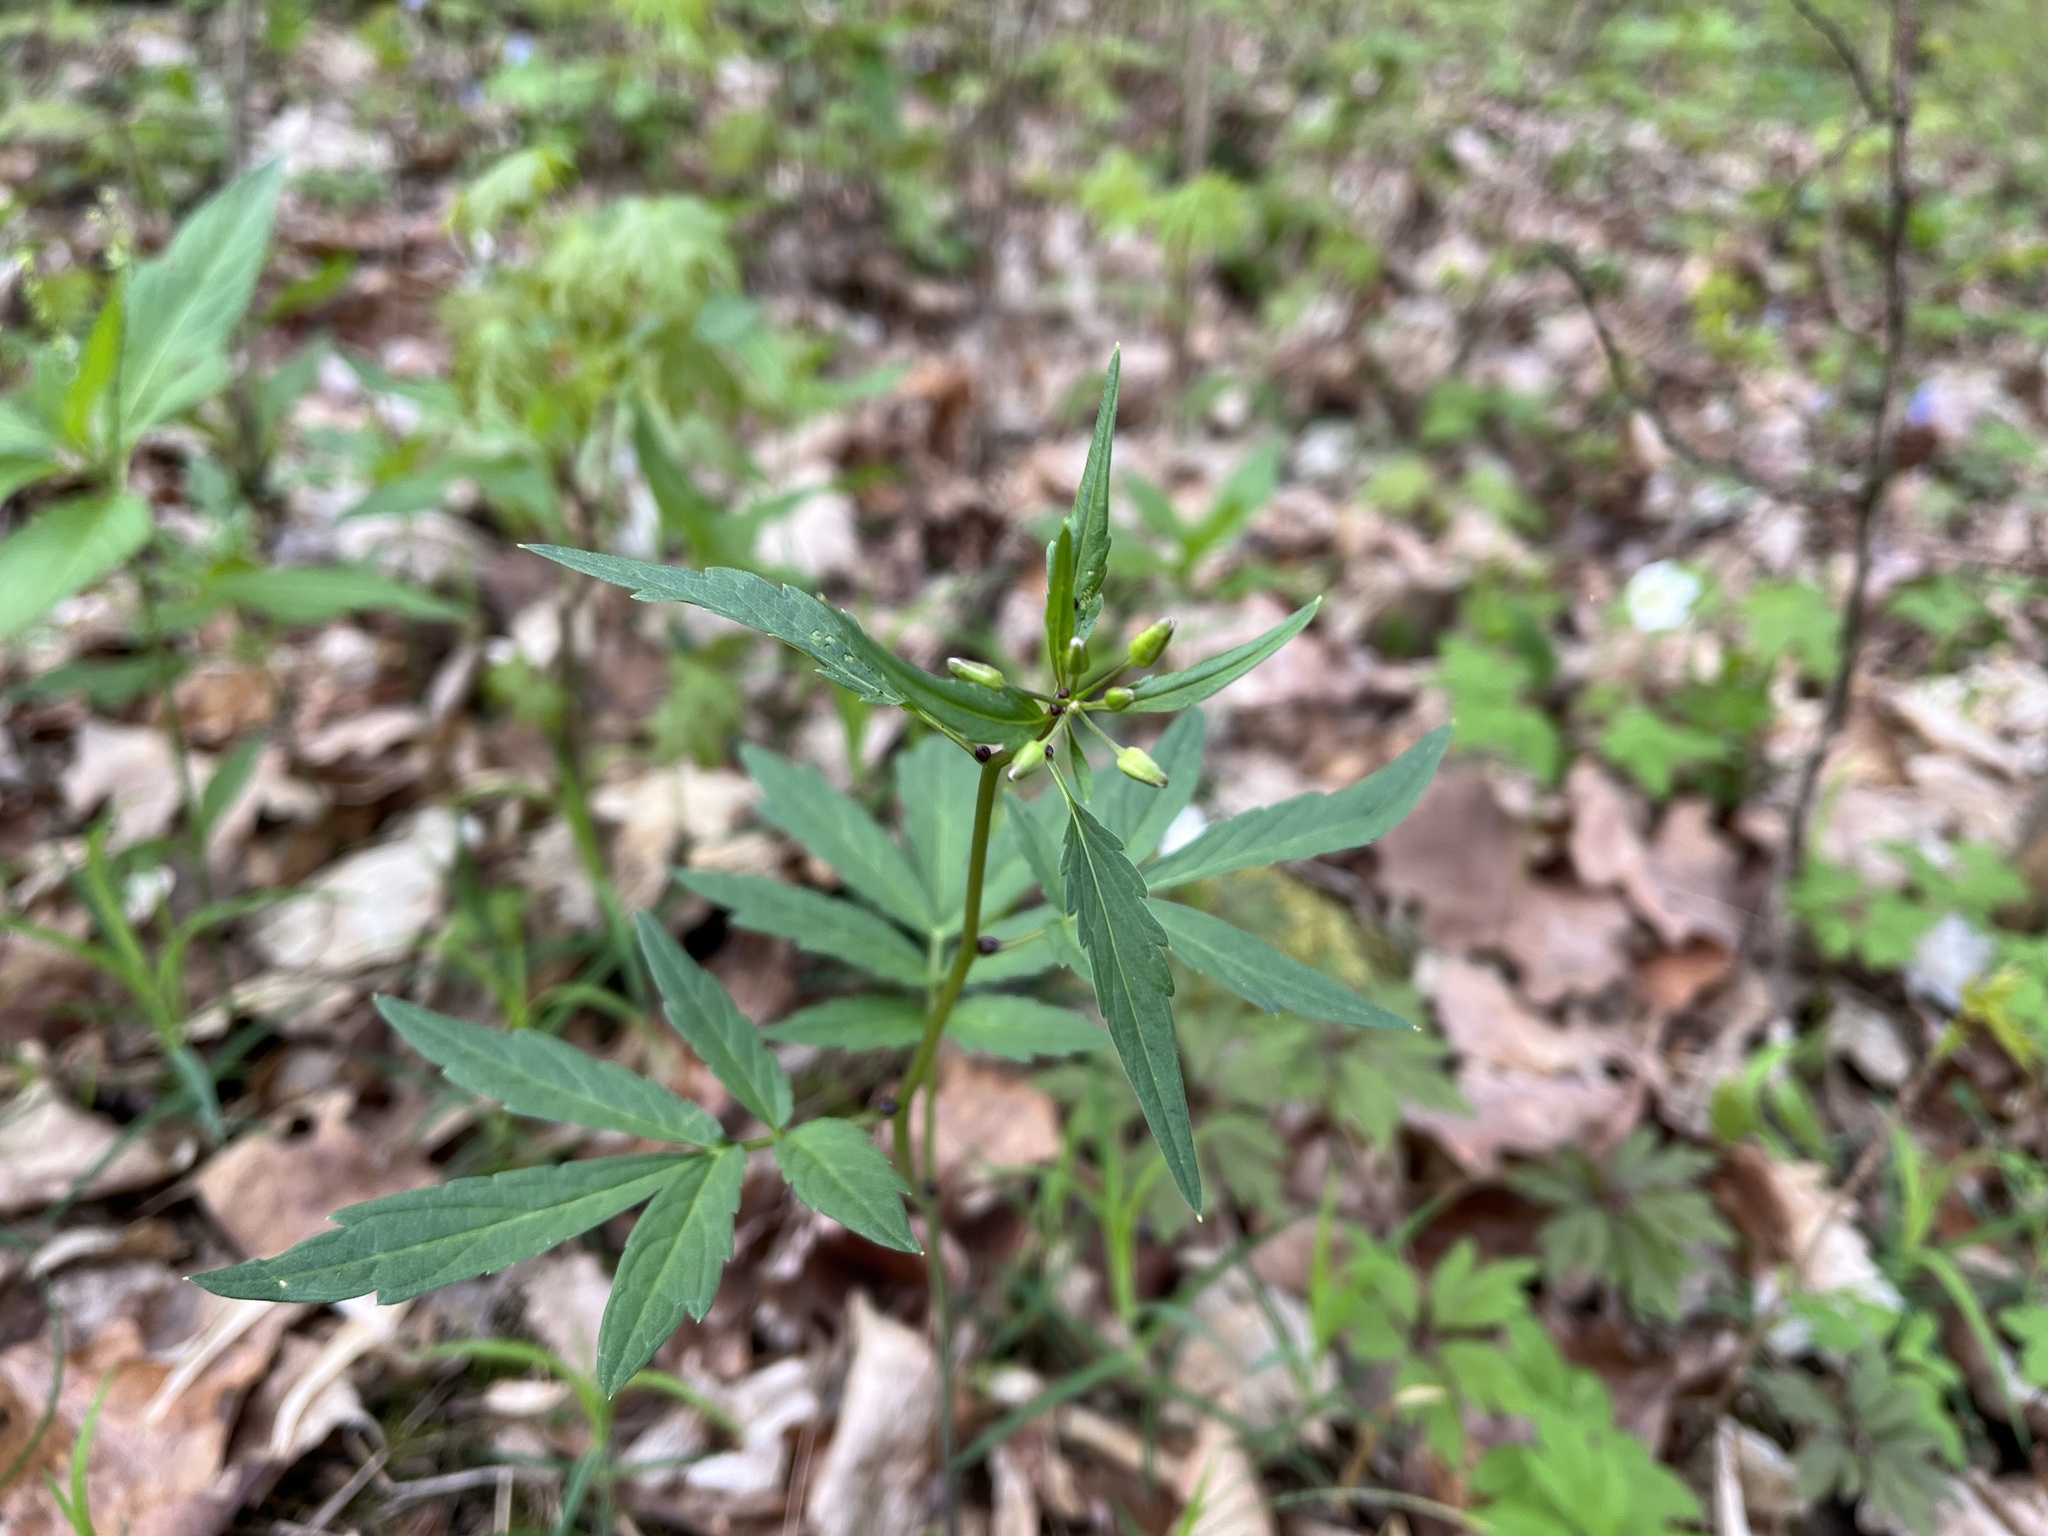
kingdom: Plantae
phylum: Tracheophyta
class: Magnoliopsida
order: Brassicales
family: Brassicaceae
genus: Cardamine
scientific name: Cardamine bulbifera
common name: Coralroot bittercress
